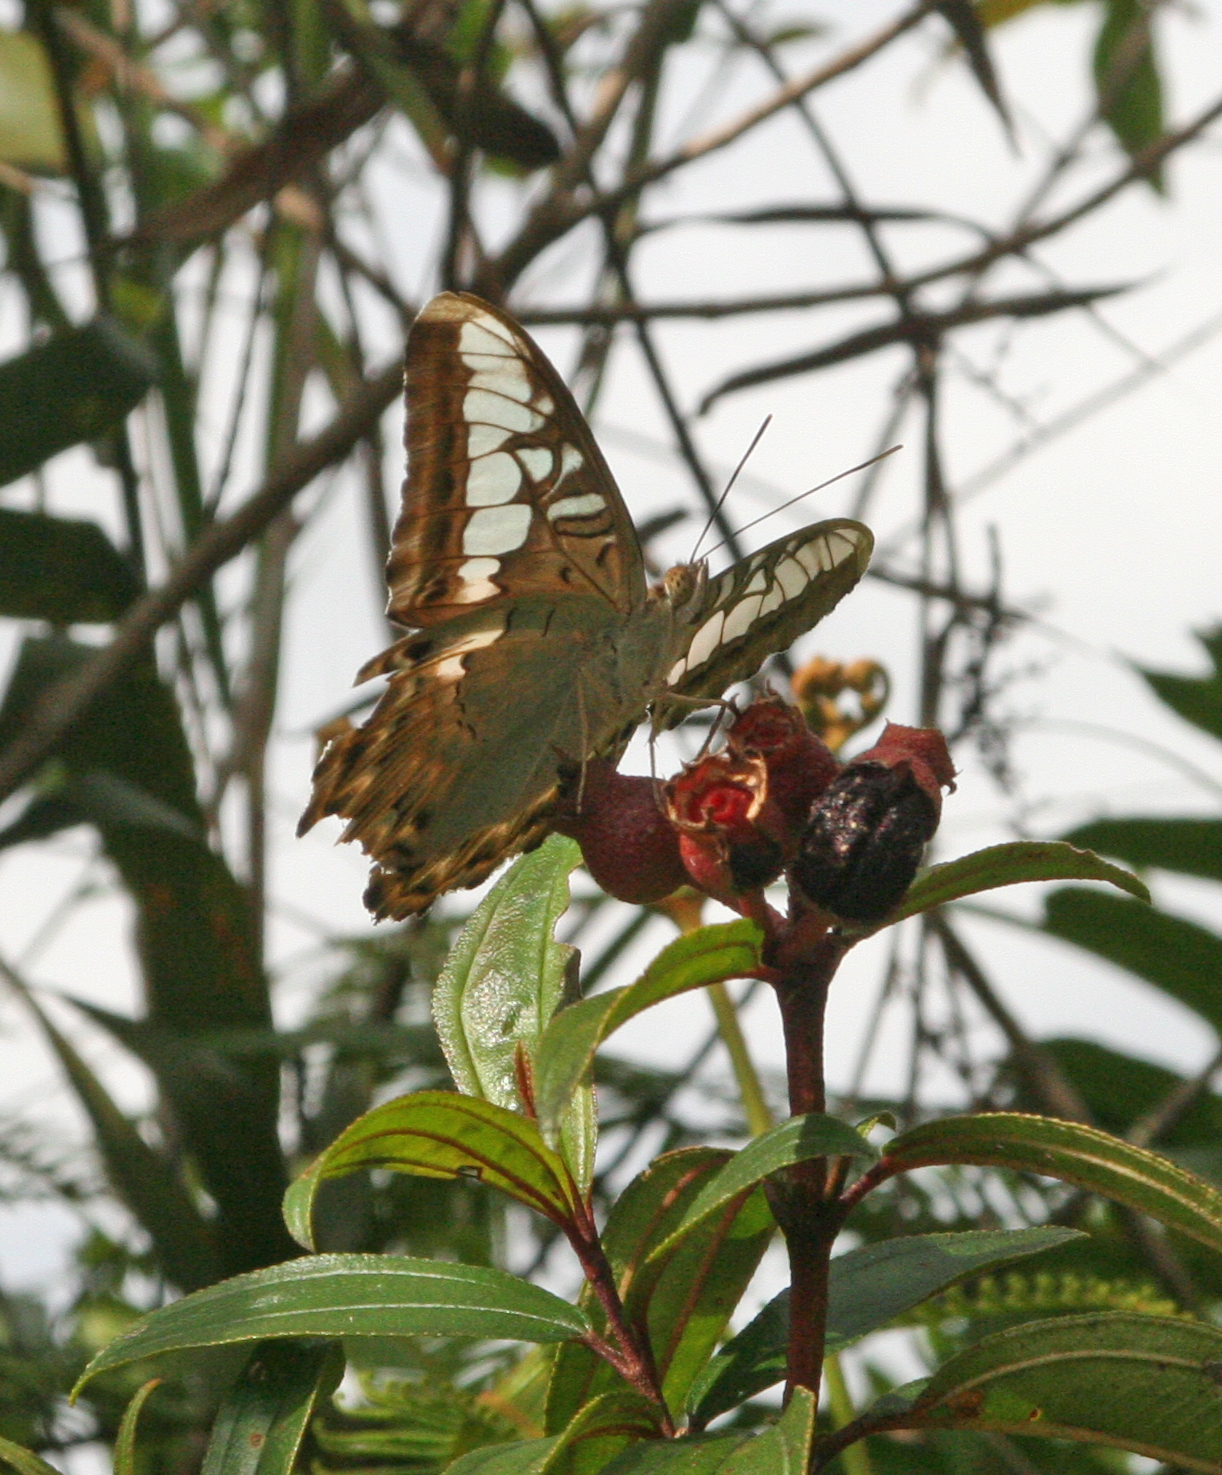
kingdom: Animalia
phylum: Arthropoda
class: Insecta
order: Lepidoptera
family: Nymphalidae
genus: Kallima
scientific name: Kallima sylvia
